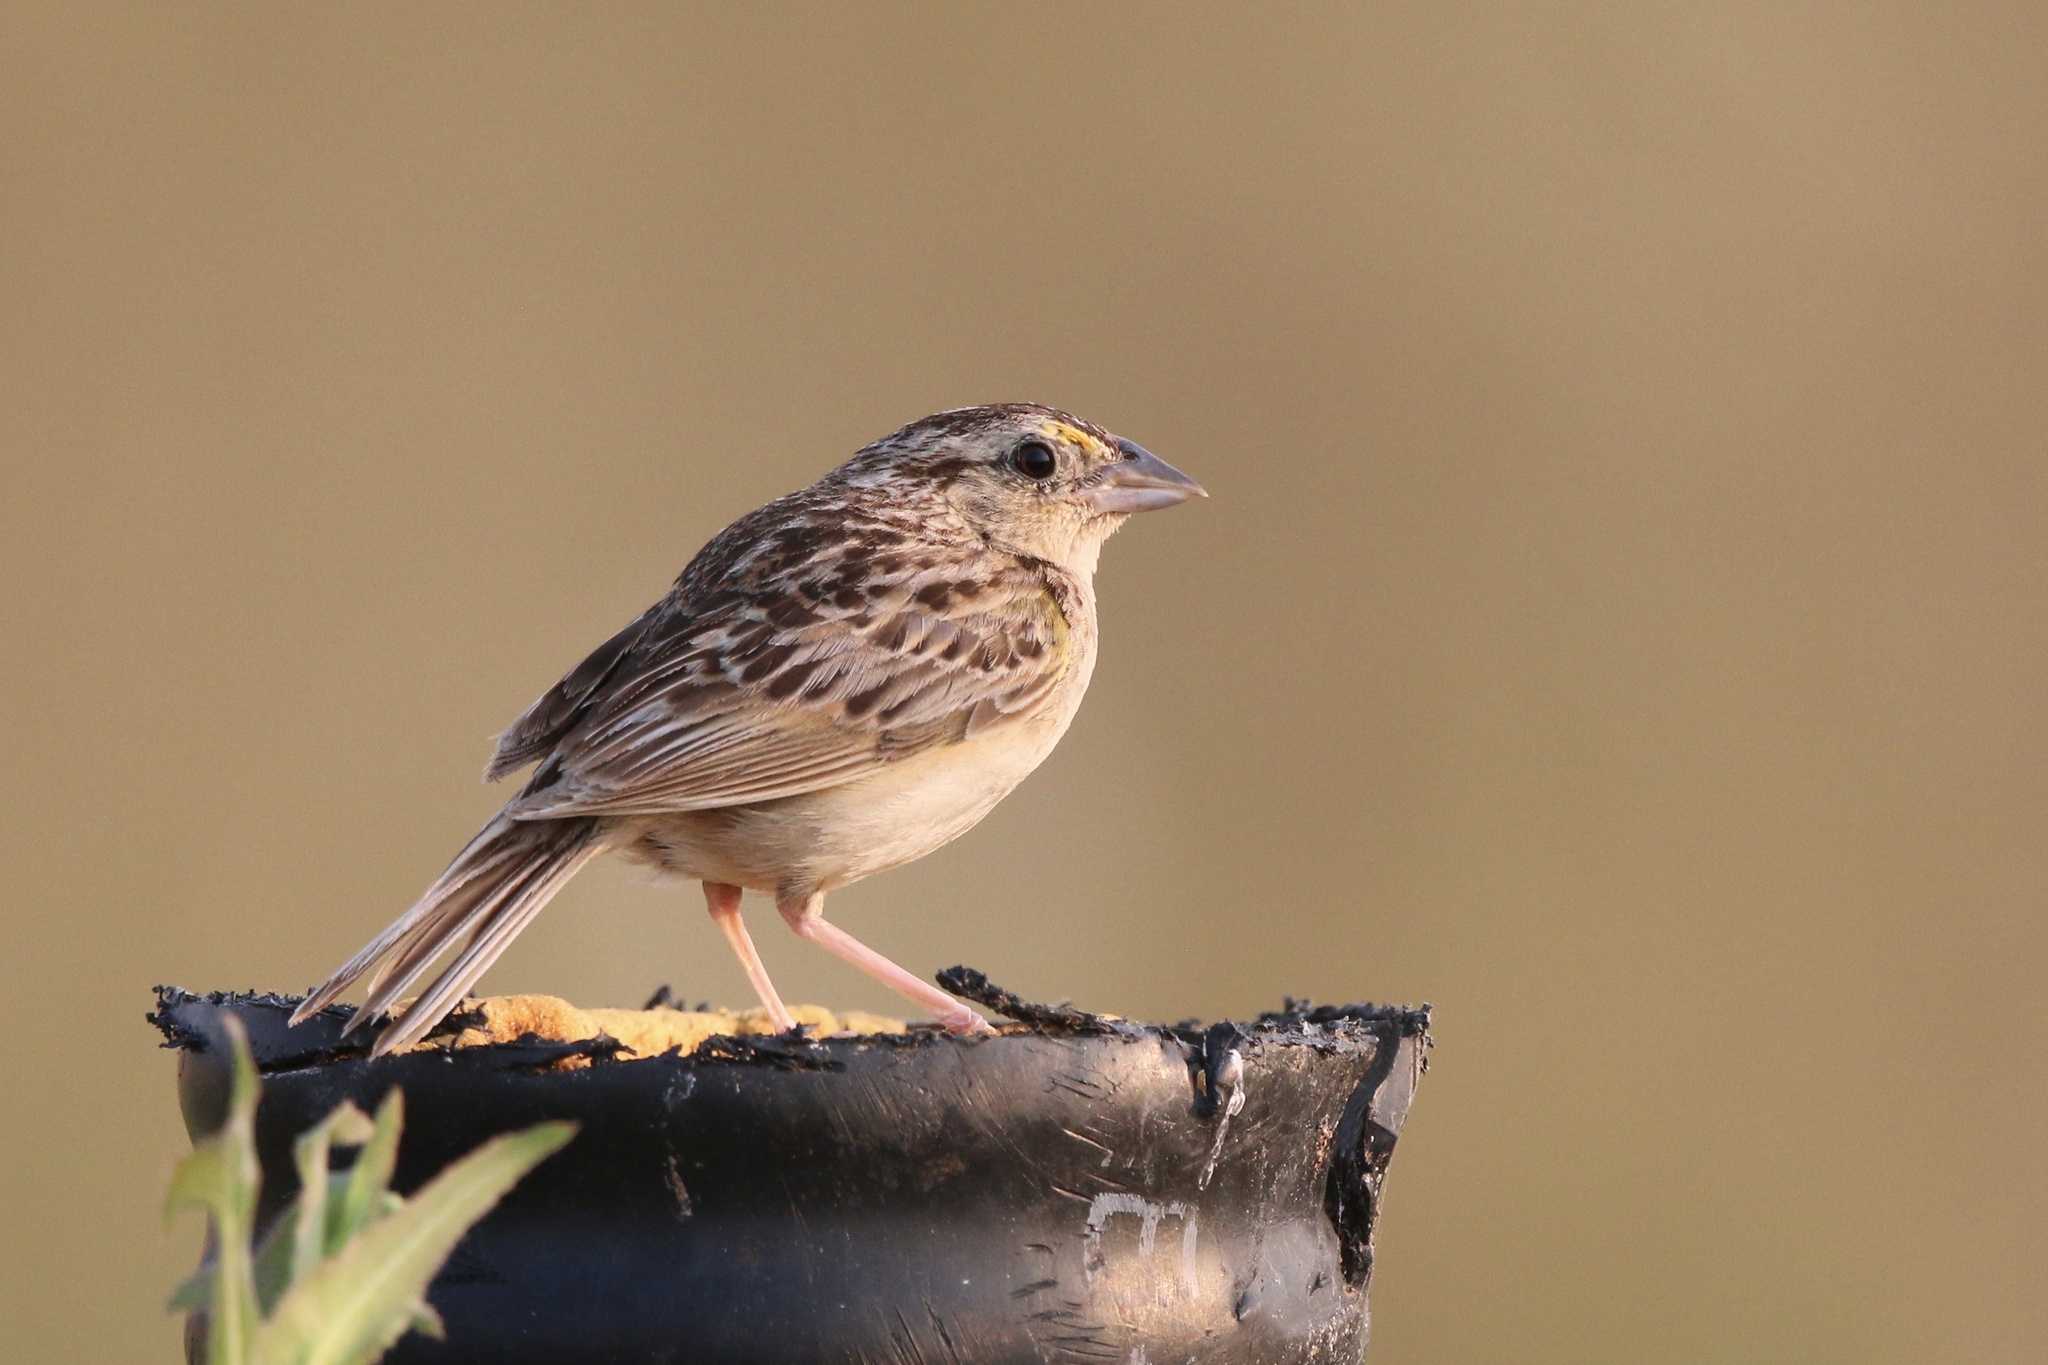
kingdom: Animalia
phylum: Chordata
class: Aves
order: Passeriformes
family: Passerellidae
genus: Ammodramus
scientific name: Ammodramus savannarum
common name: Grasshopper sparrow
